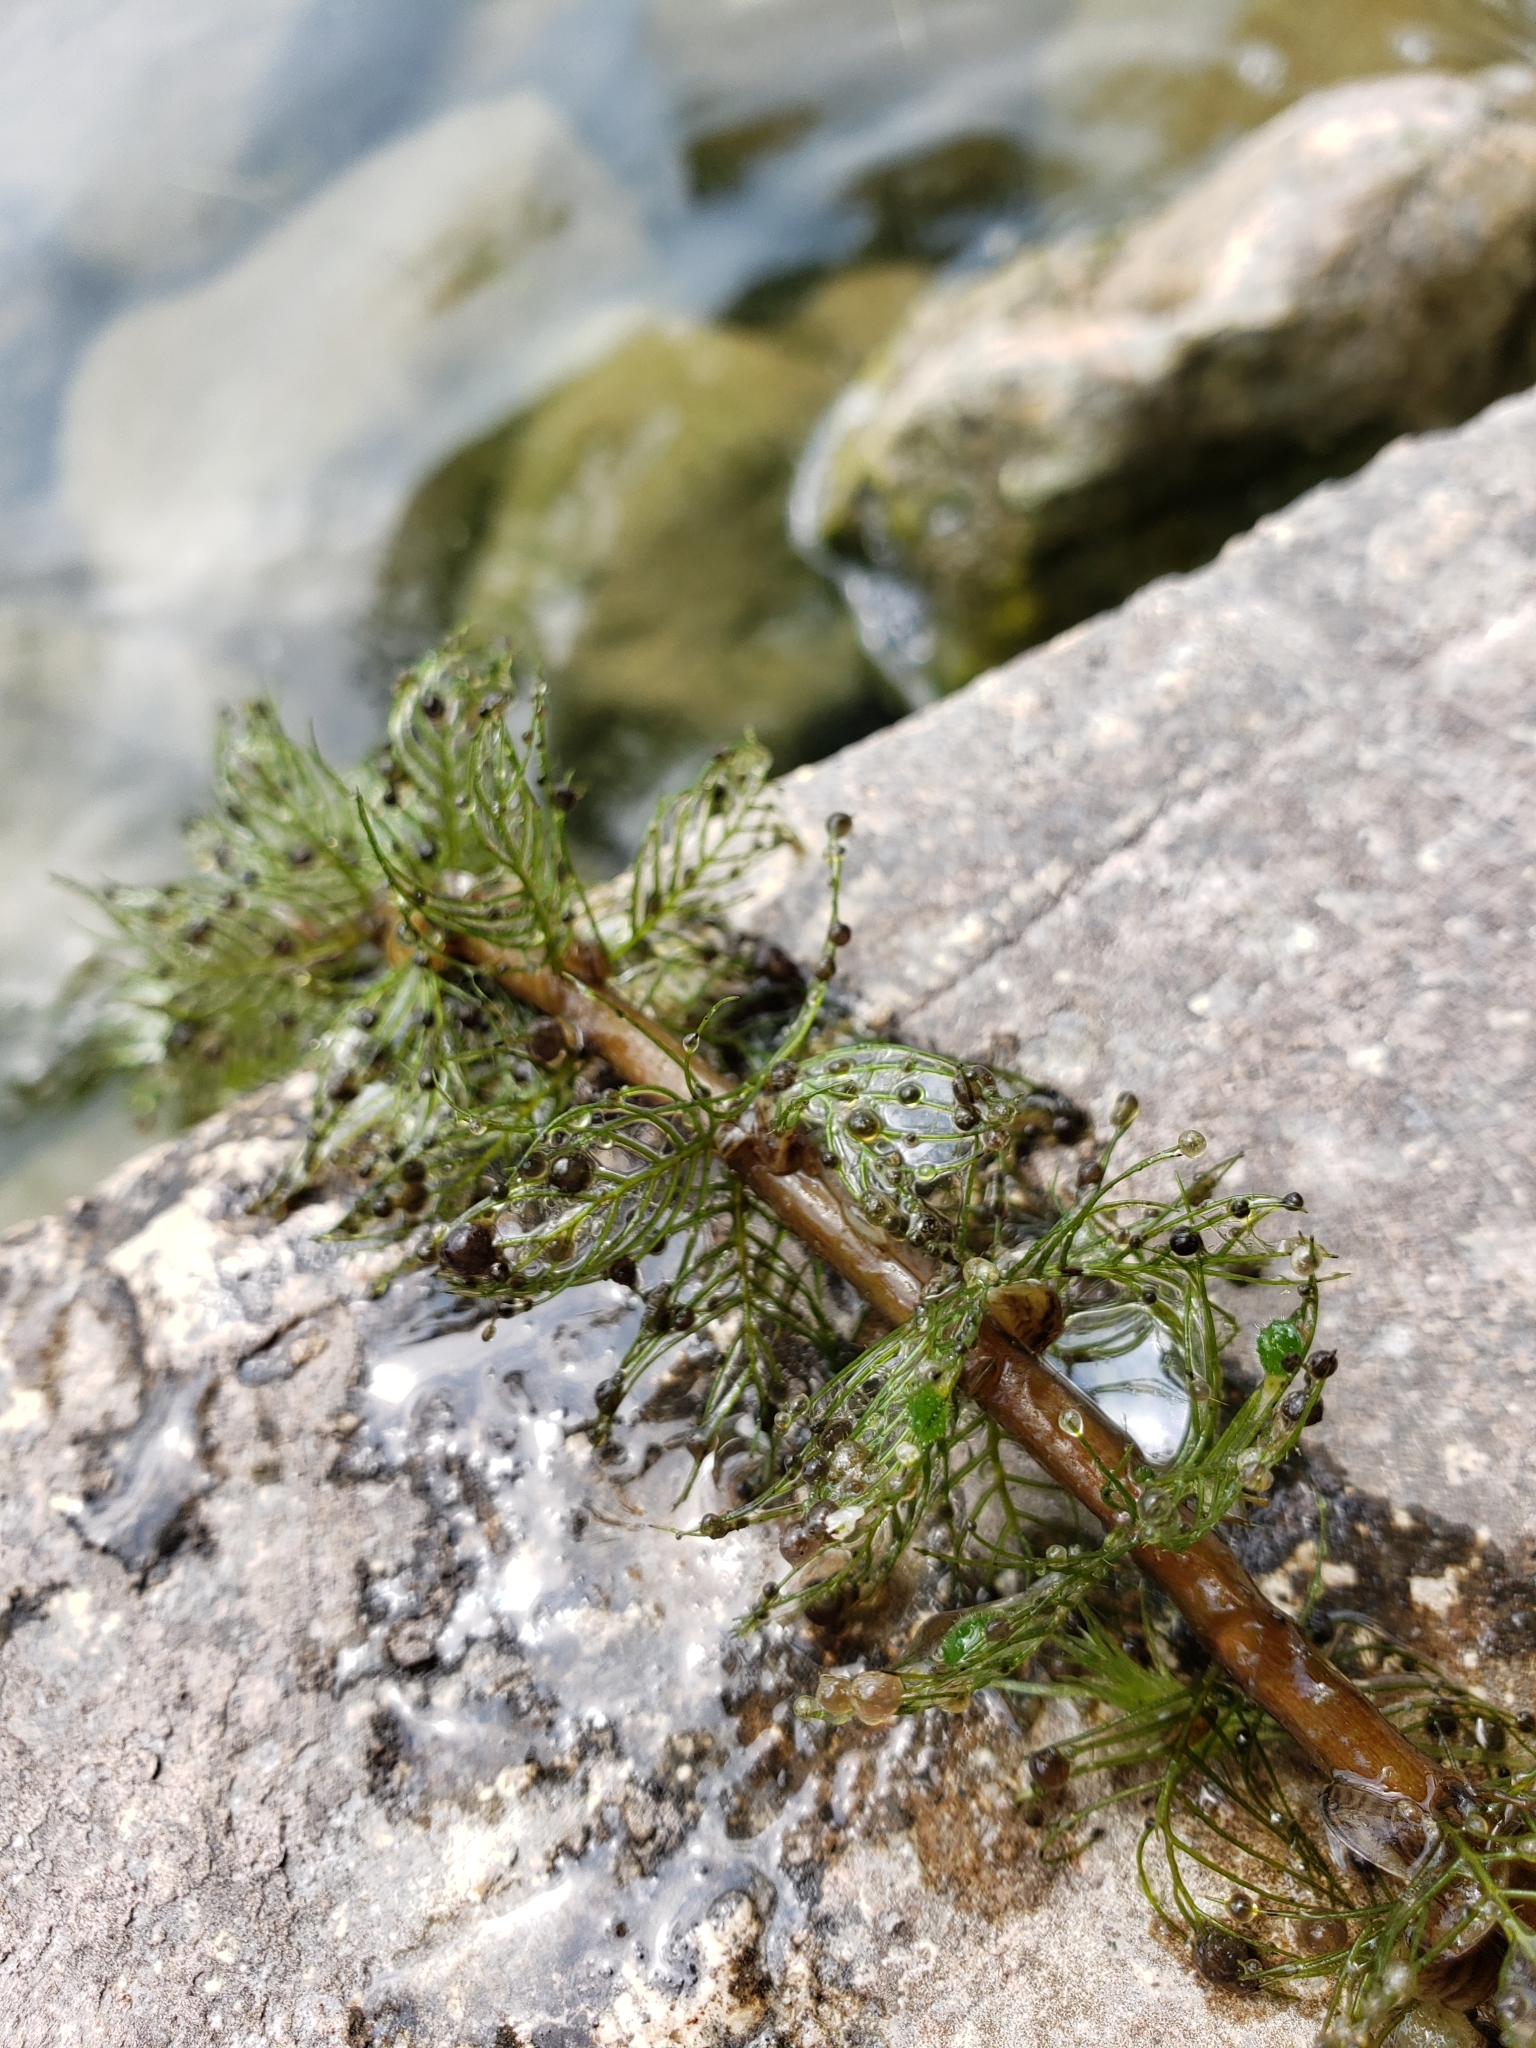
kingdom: Plantae
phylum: Tracheophyta
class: Magnoliopsida
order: Saxifragales
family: Haloragaceae
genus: Myriophyllum
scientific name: Myriophyllum sibiricum
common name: Siberian water-milfoil
